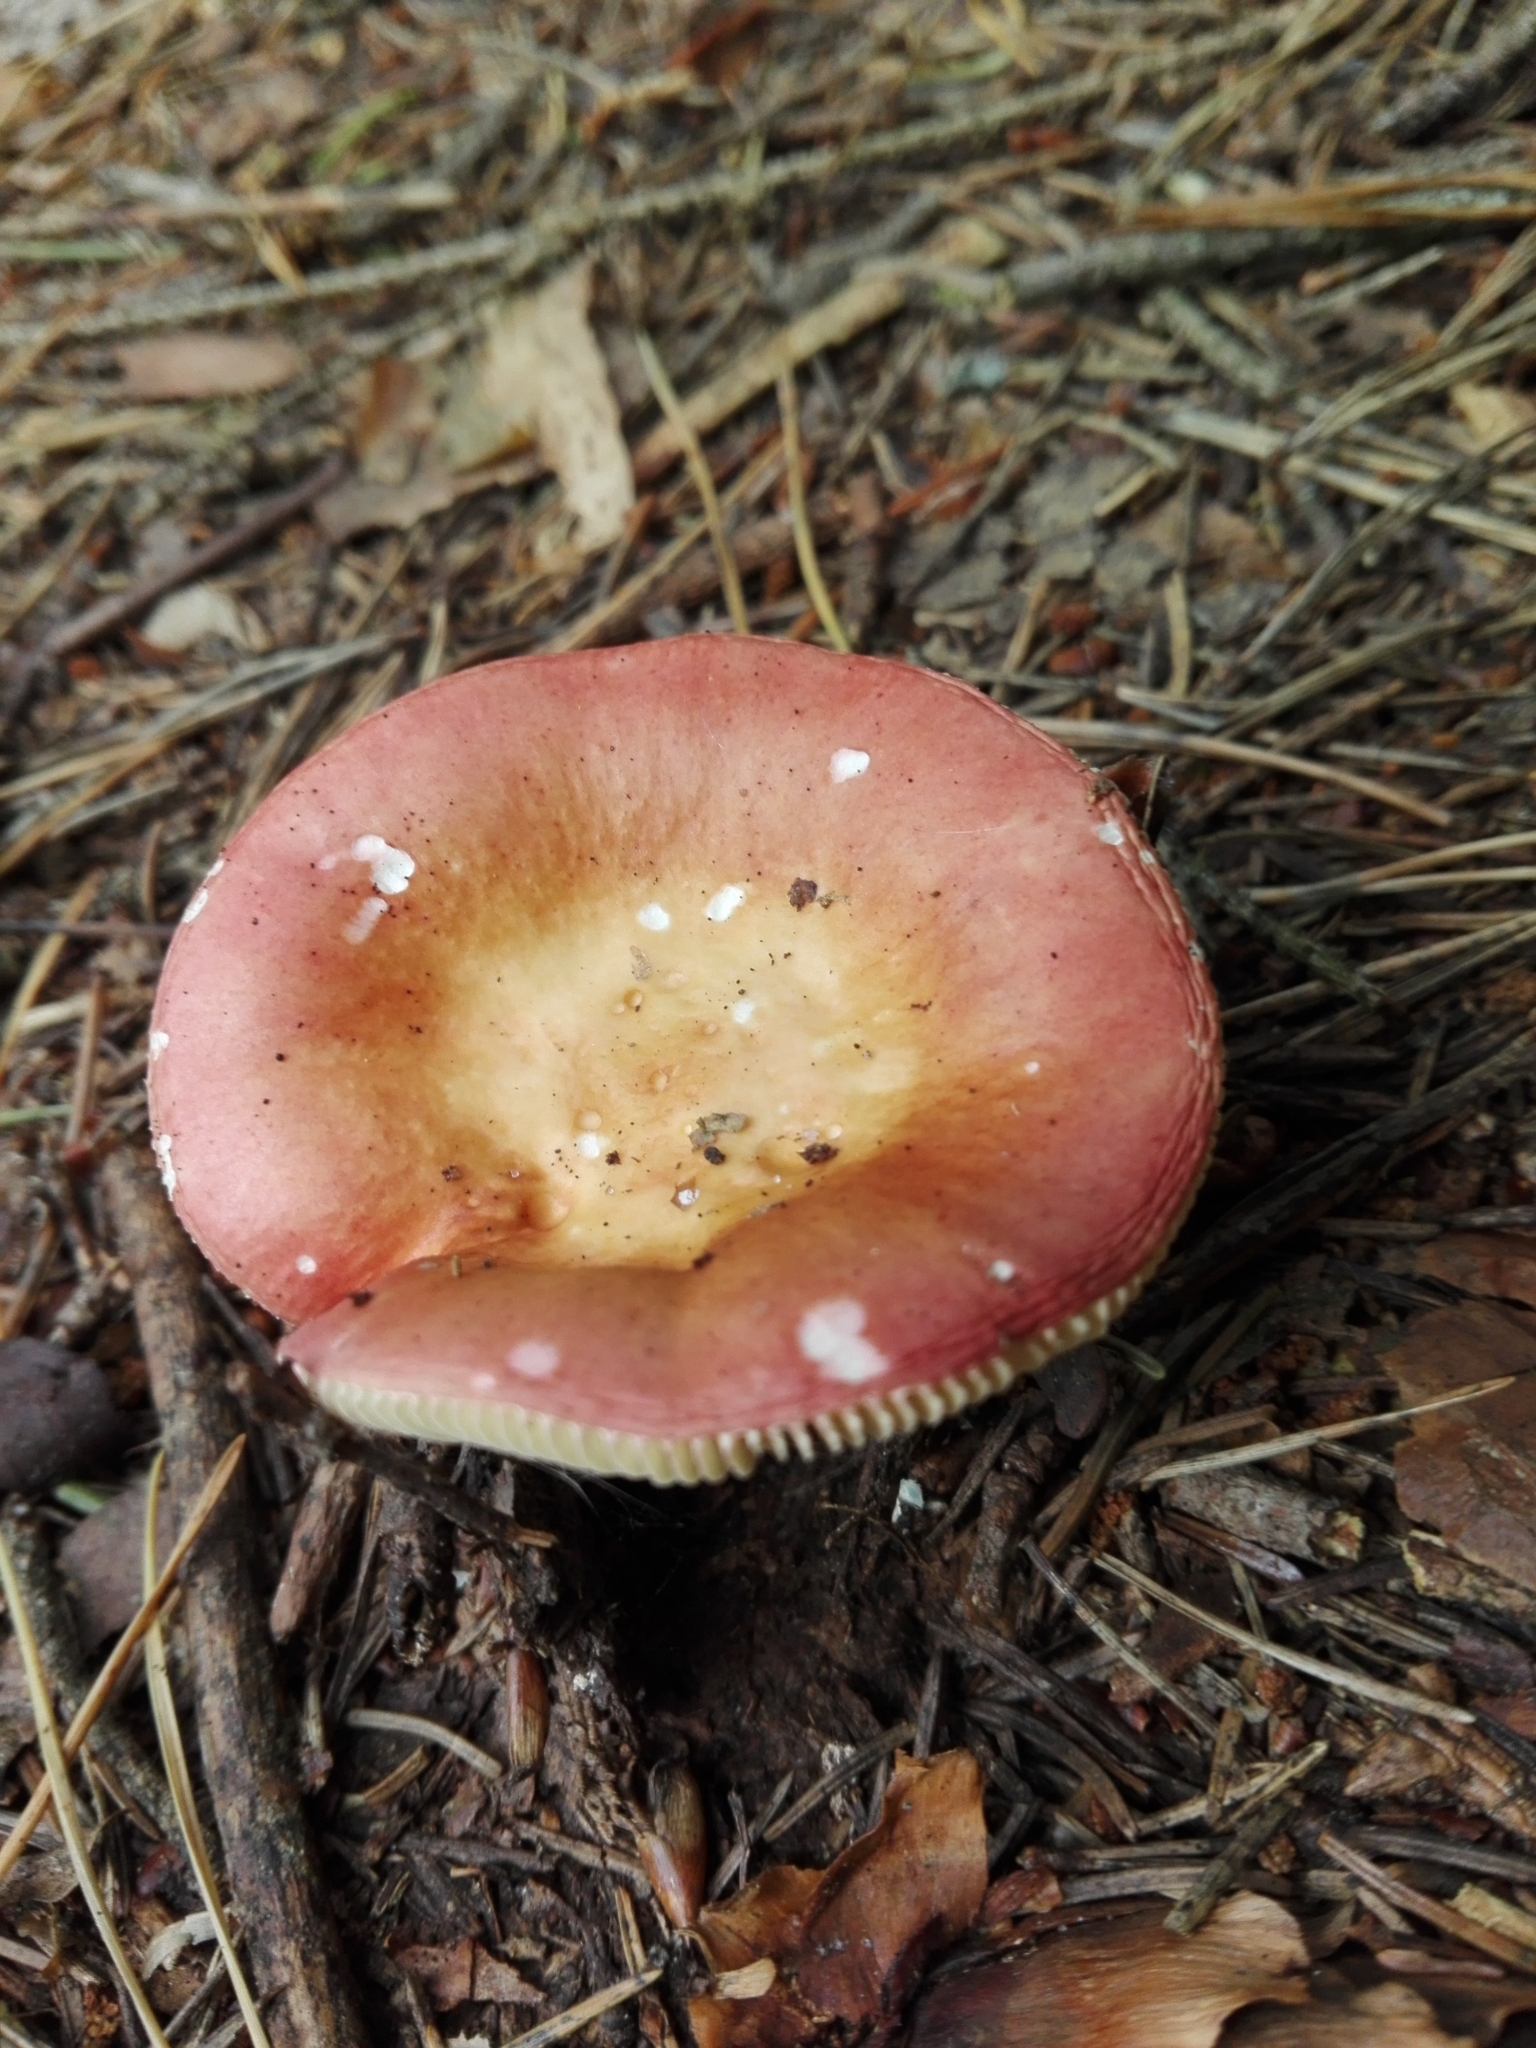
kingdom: Fungi
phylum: Basidiomycota
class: Agaricomycetes
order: Russulales
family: Russulaceae
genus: Russula
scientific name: Russula vinosa
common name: Darkening brittlegill
